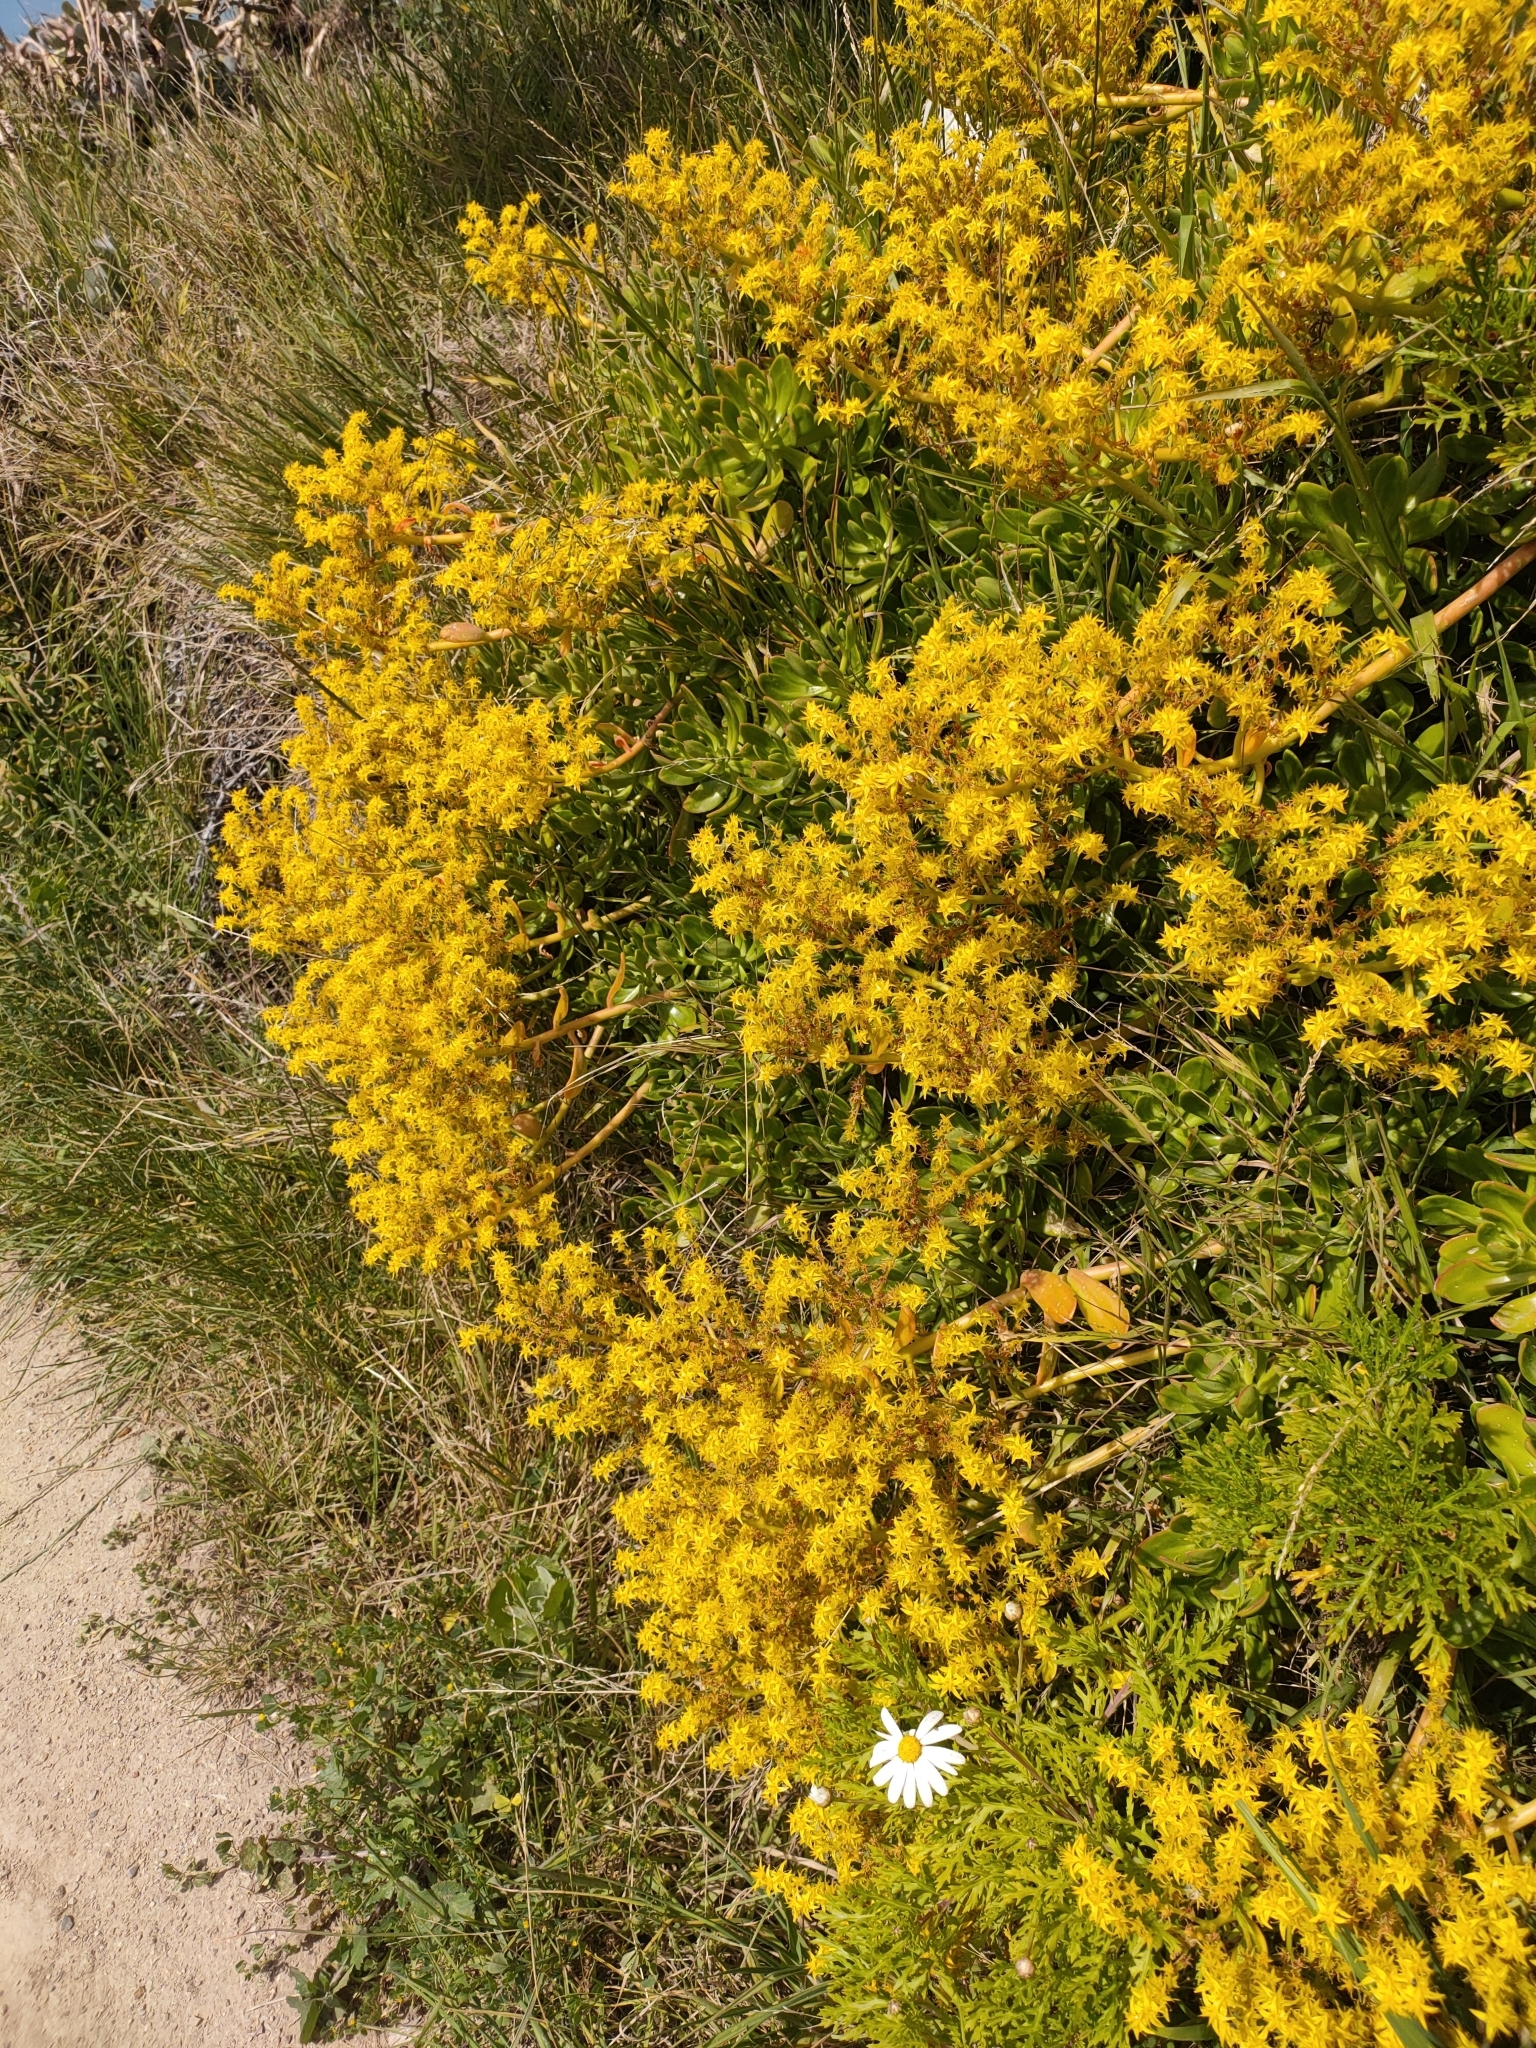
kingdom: Plantae
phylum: Tracheophyta
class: Magnoliopsida
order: Saxifragales
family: Crassulaceae
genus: Sedum
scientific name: Sedum praealtum
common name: Greater mexican-stonecrop
